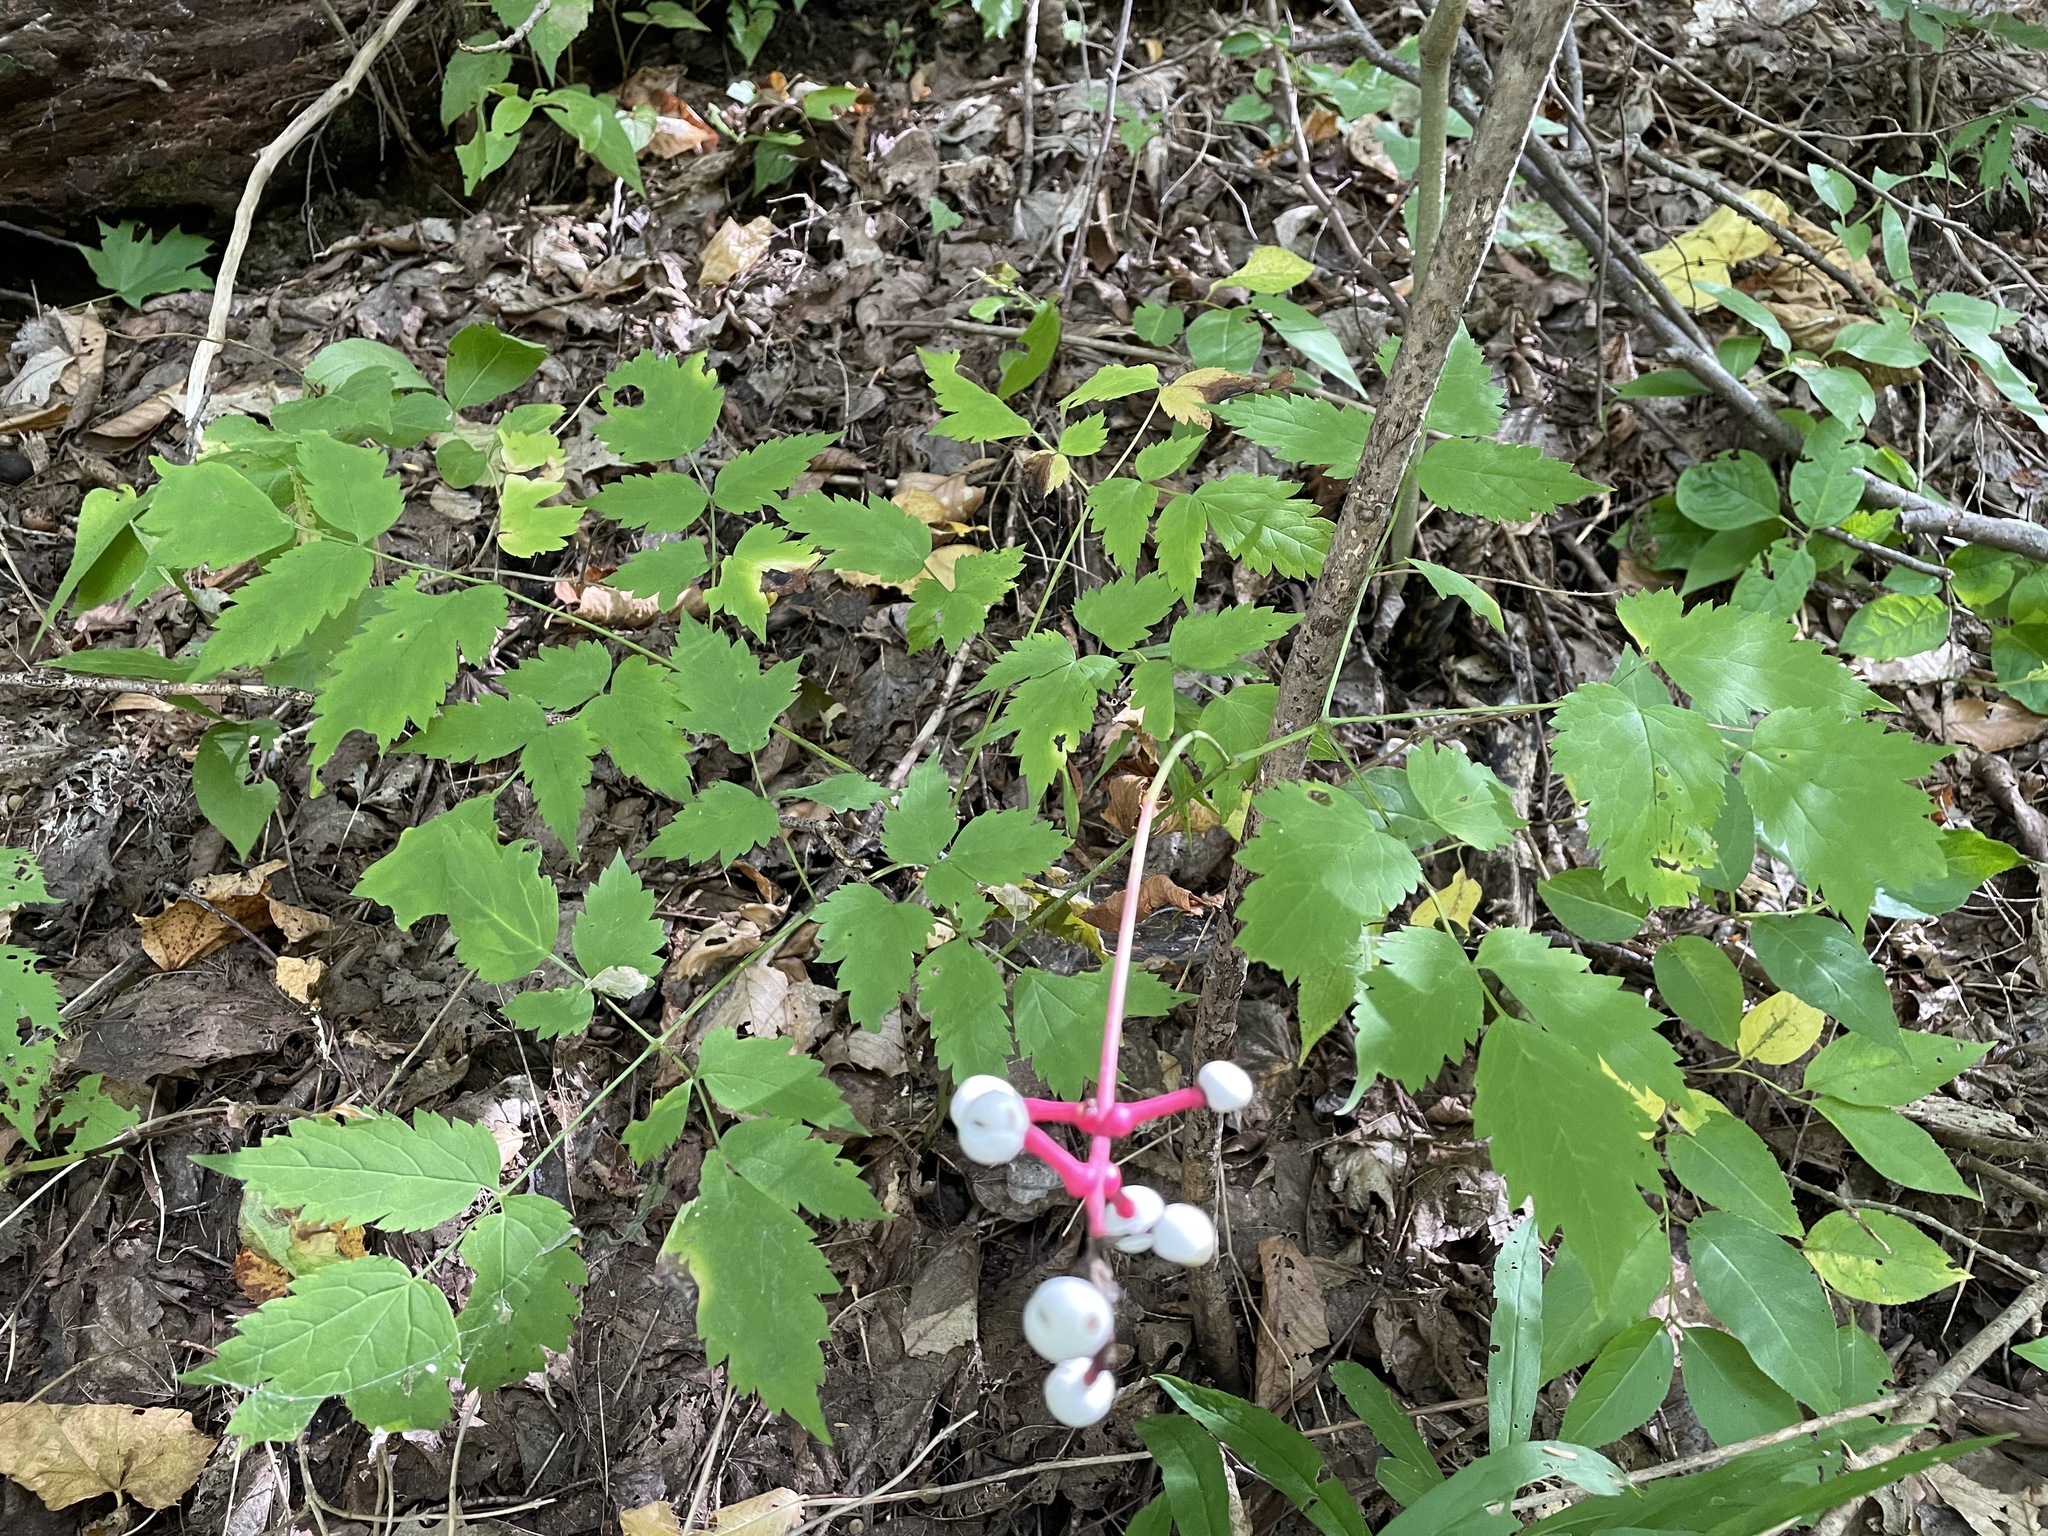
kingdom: Plantae
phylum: Tracheophyta
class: Magnoliopsida
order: Ranunculales
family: Ranunculaceae
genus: Actaea
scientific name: Actaea pachypoda
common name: Doll's-eyes
